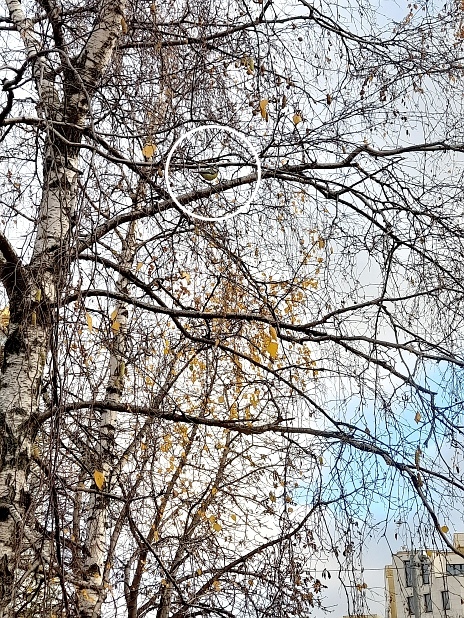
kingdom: Animalia
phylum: Chordata
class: Aves
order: Passeriformes
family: Paridae
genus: Cyanistes
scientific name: Cyanistes caeruleus
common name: Eurasian blue tit
